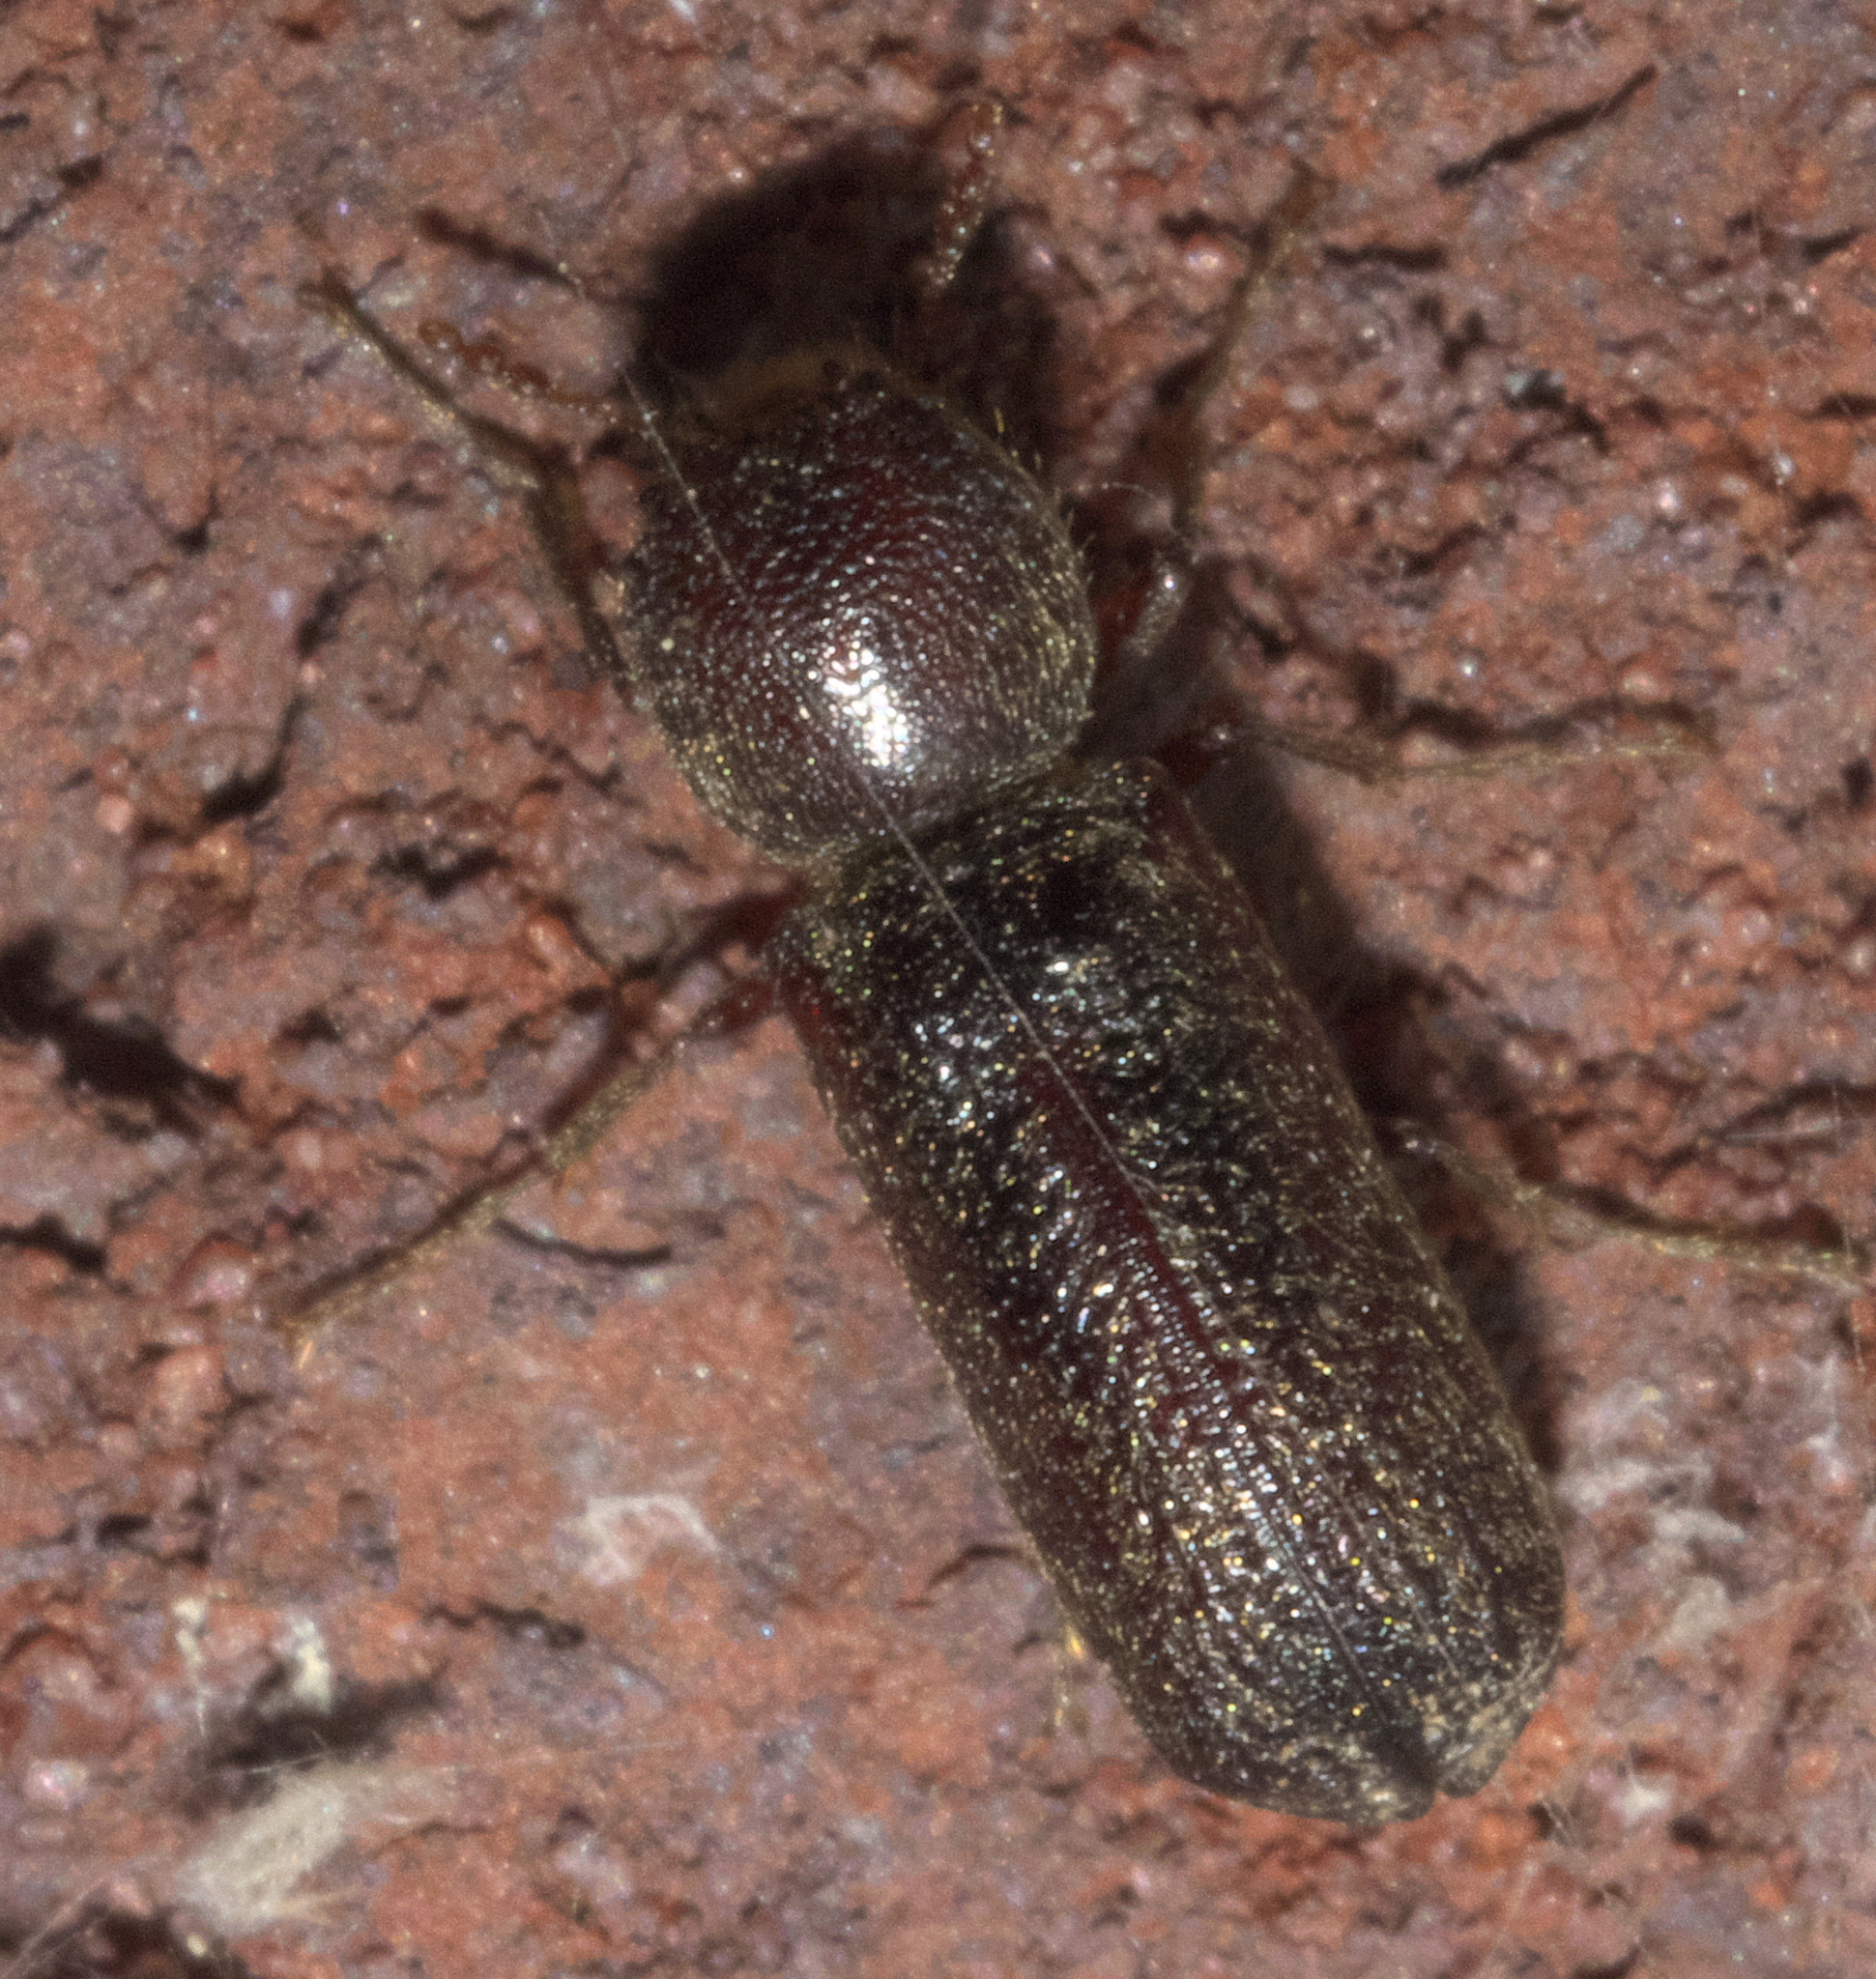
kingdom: Animalia
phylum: Arthropoda
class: Insecta
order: Coleoptera
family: Bostrichidae
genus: Amphicerus
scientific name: Amphicerus bicaudatus
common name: Apple twig borer
